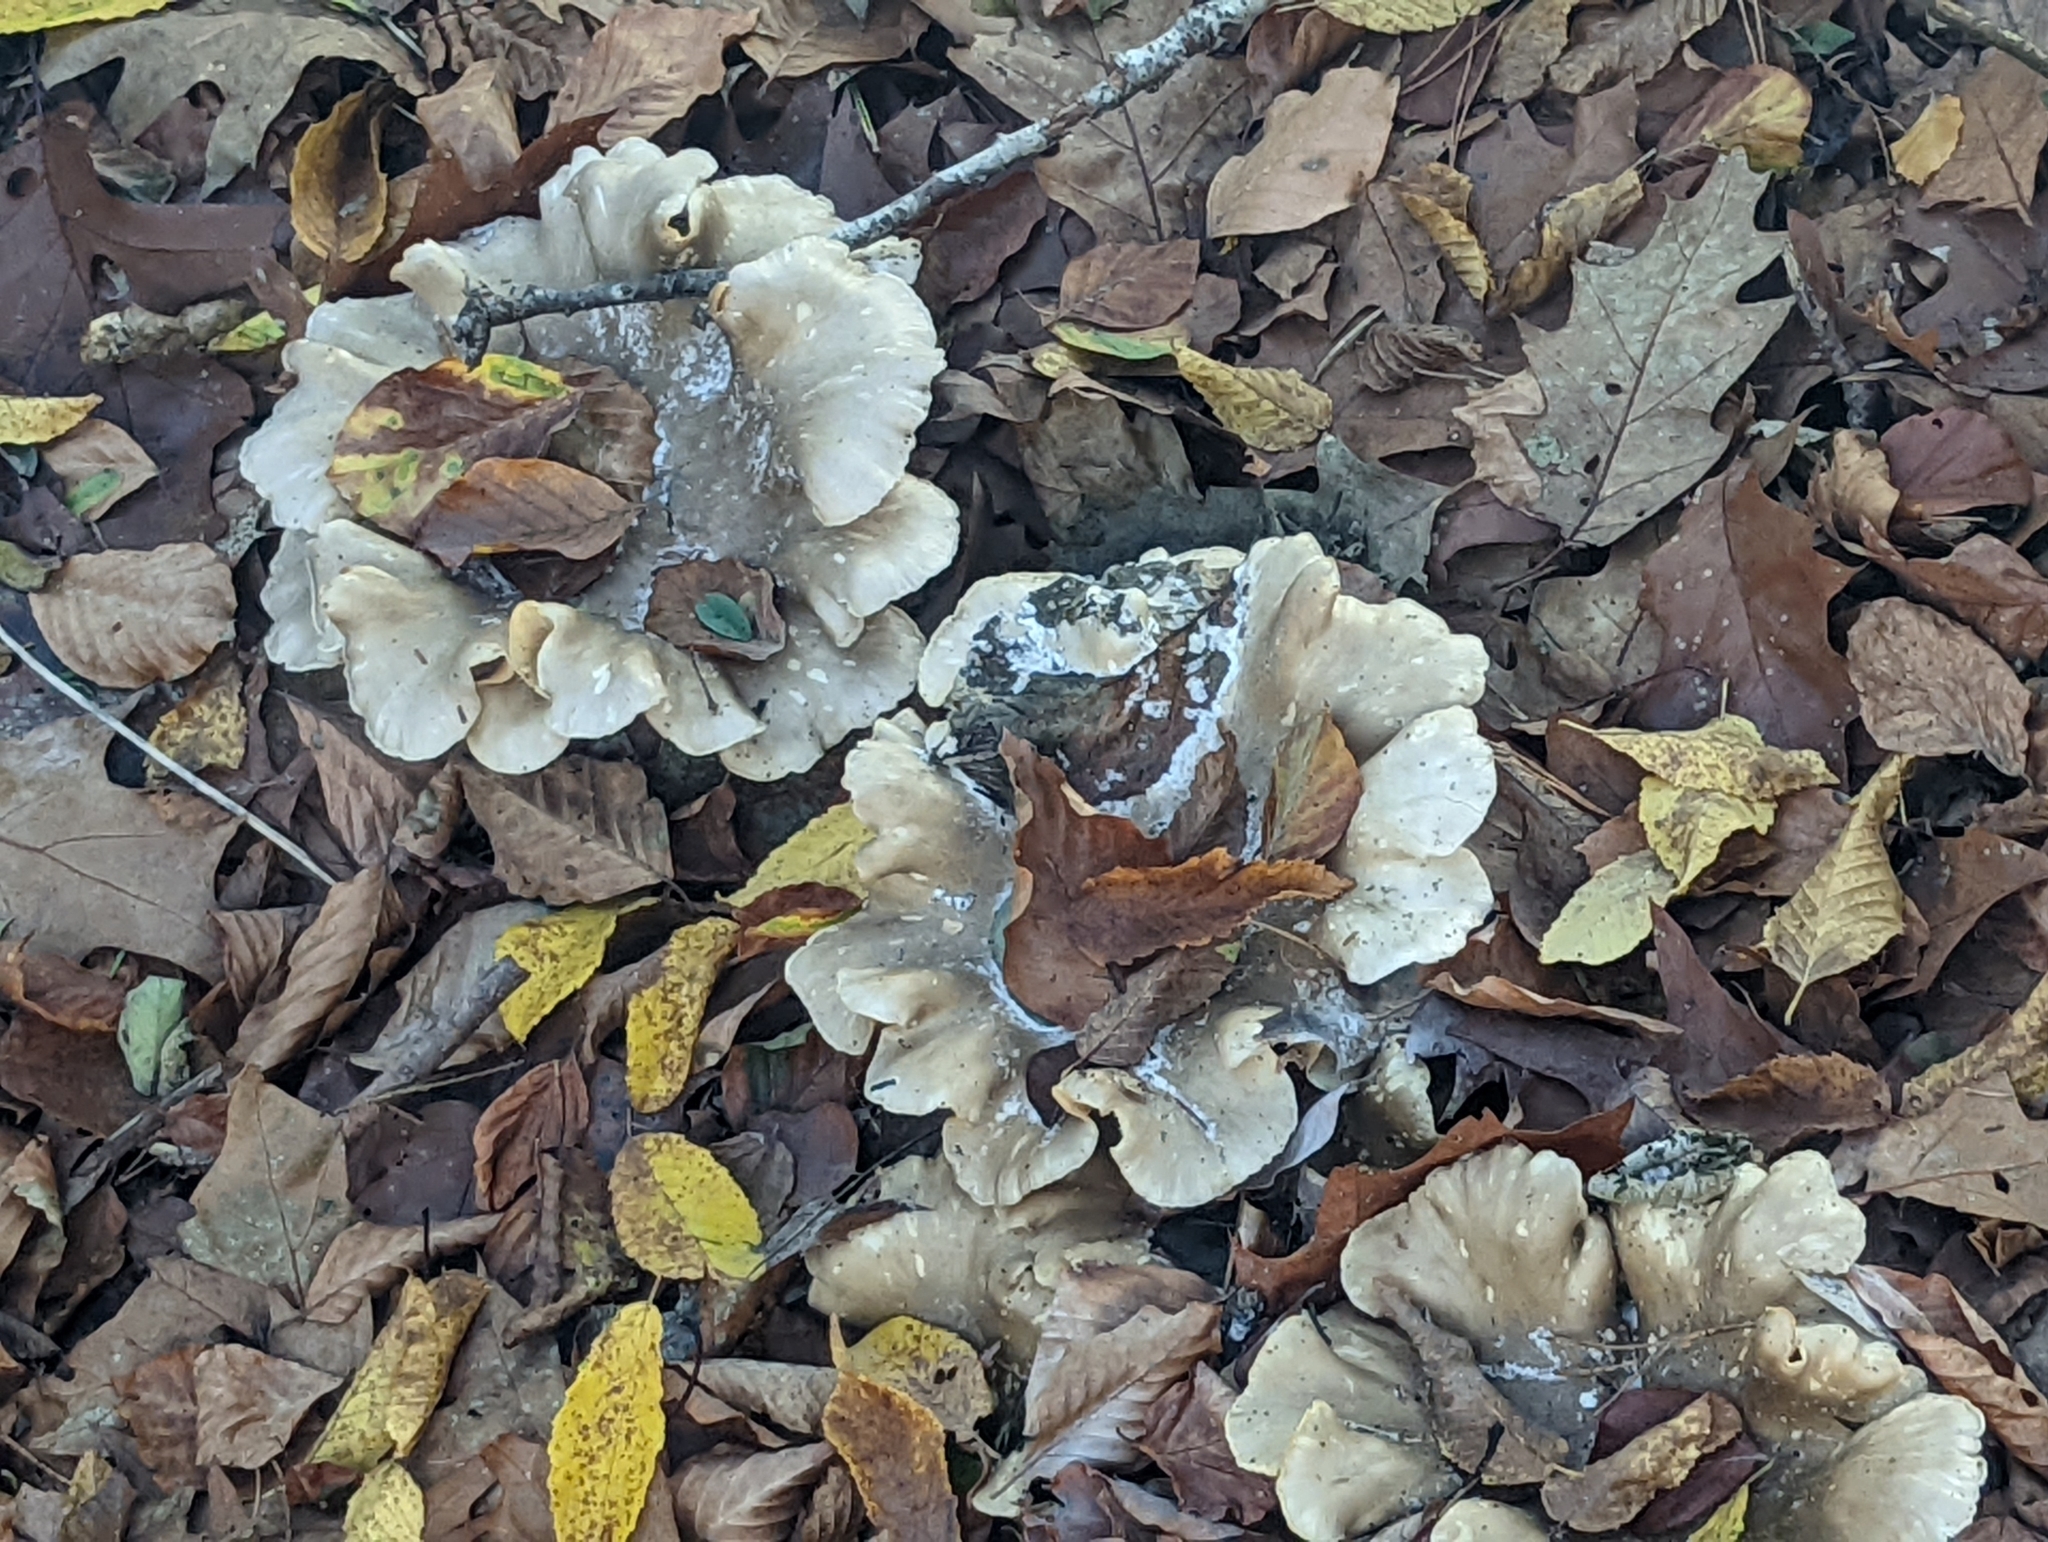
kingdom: Fungi
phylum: Basidiomycota
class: Agaricomycetes
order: Agaricales
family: Tricholomataceae
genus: Clitocybe
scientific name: Clitocybe nebularis
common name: Clouded agaric
